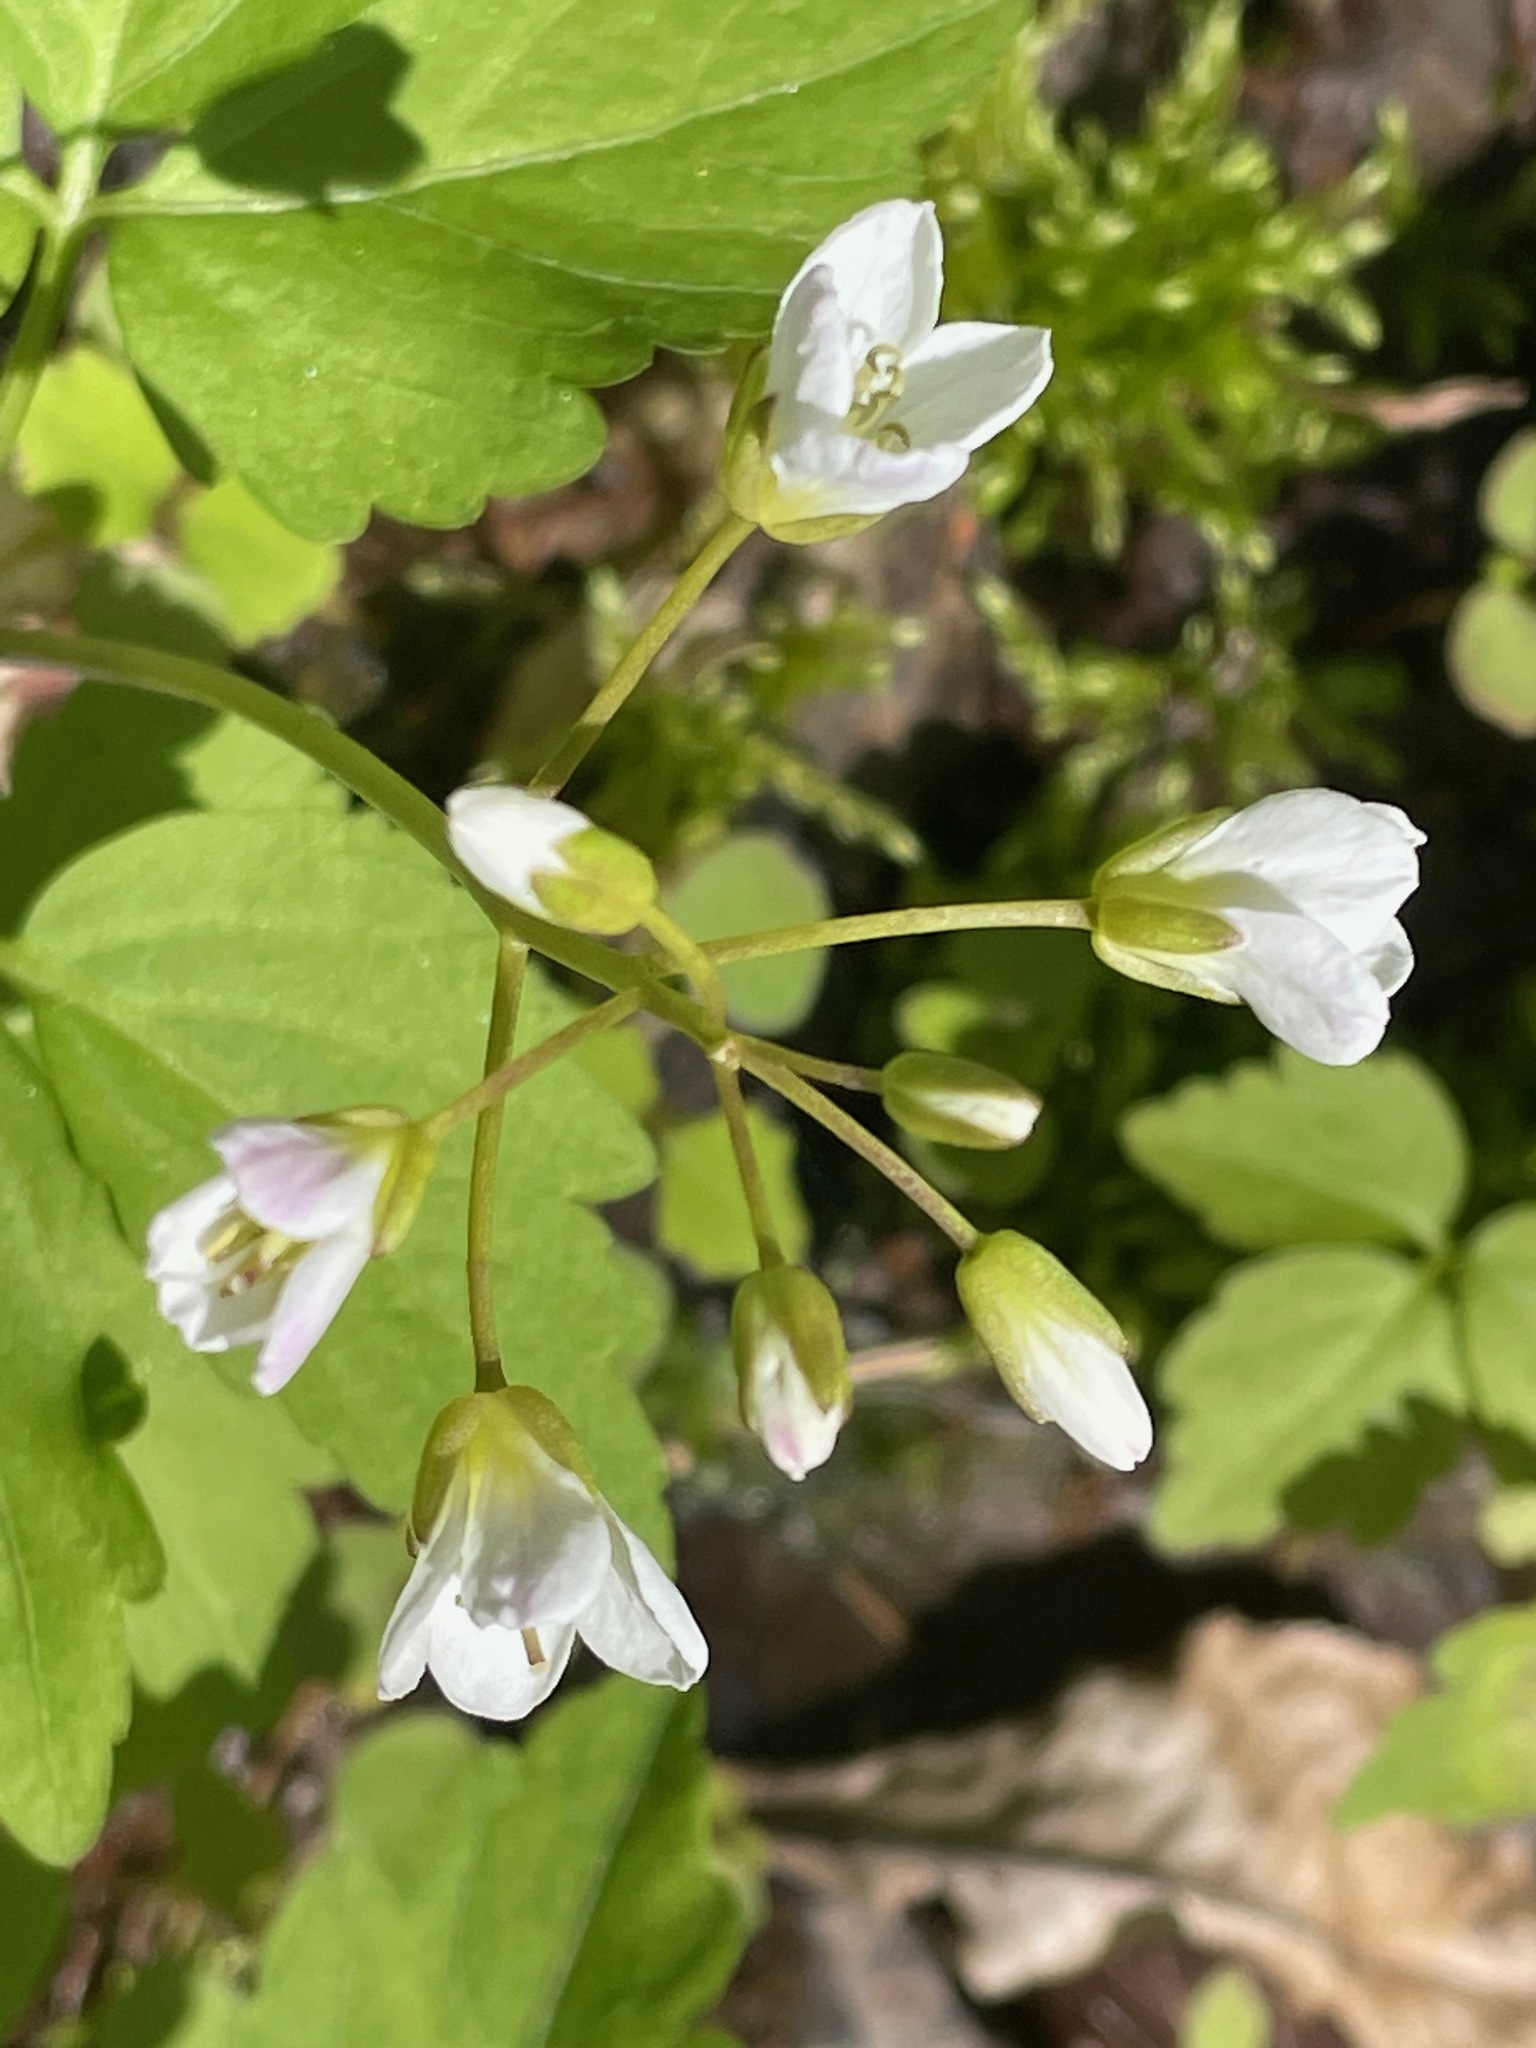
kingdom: Plantae
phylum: Tracheophyta
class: Magnoliopsida
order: Brassicales
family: Brassicaceae
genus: Cardamine
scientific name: Cardamine diphylla
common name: Broad-leaved toothwort
